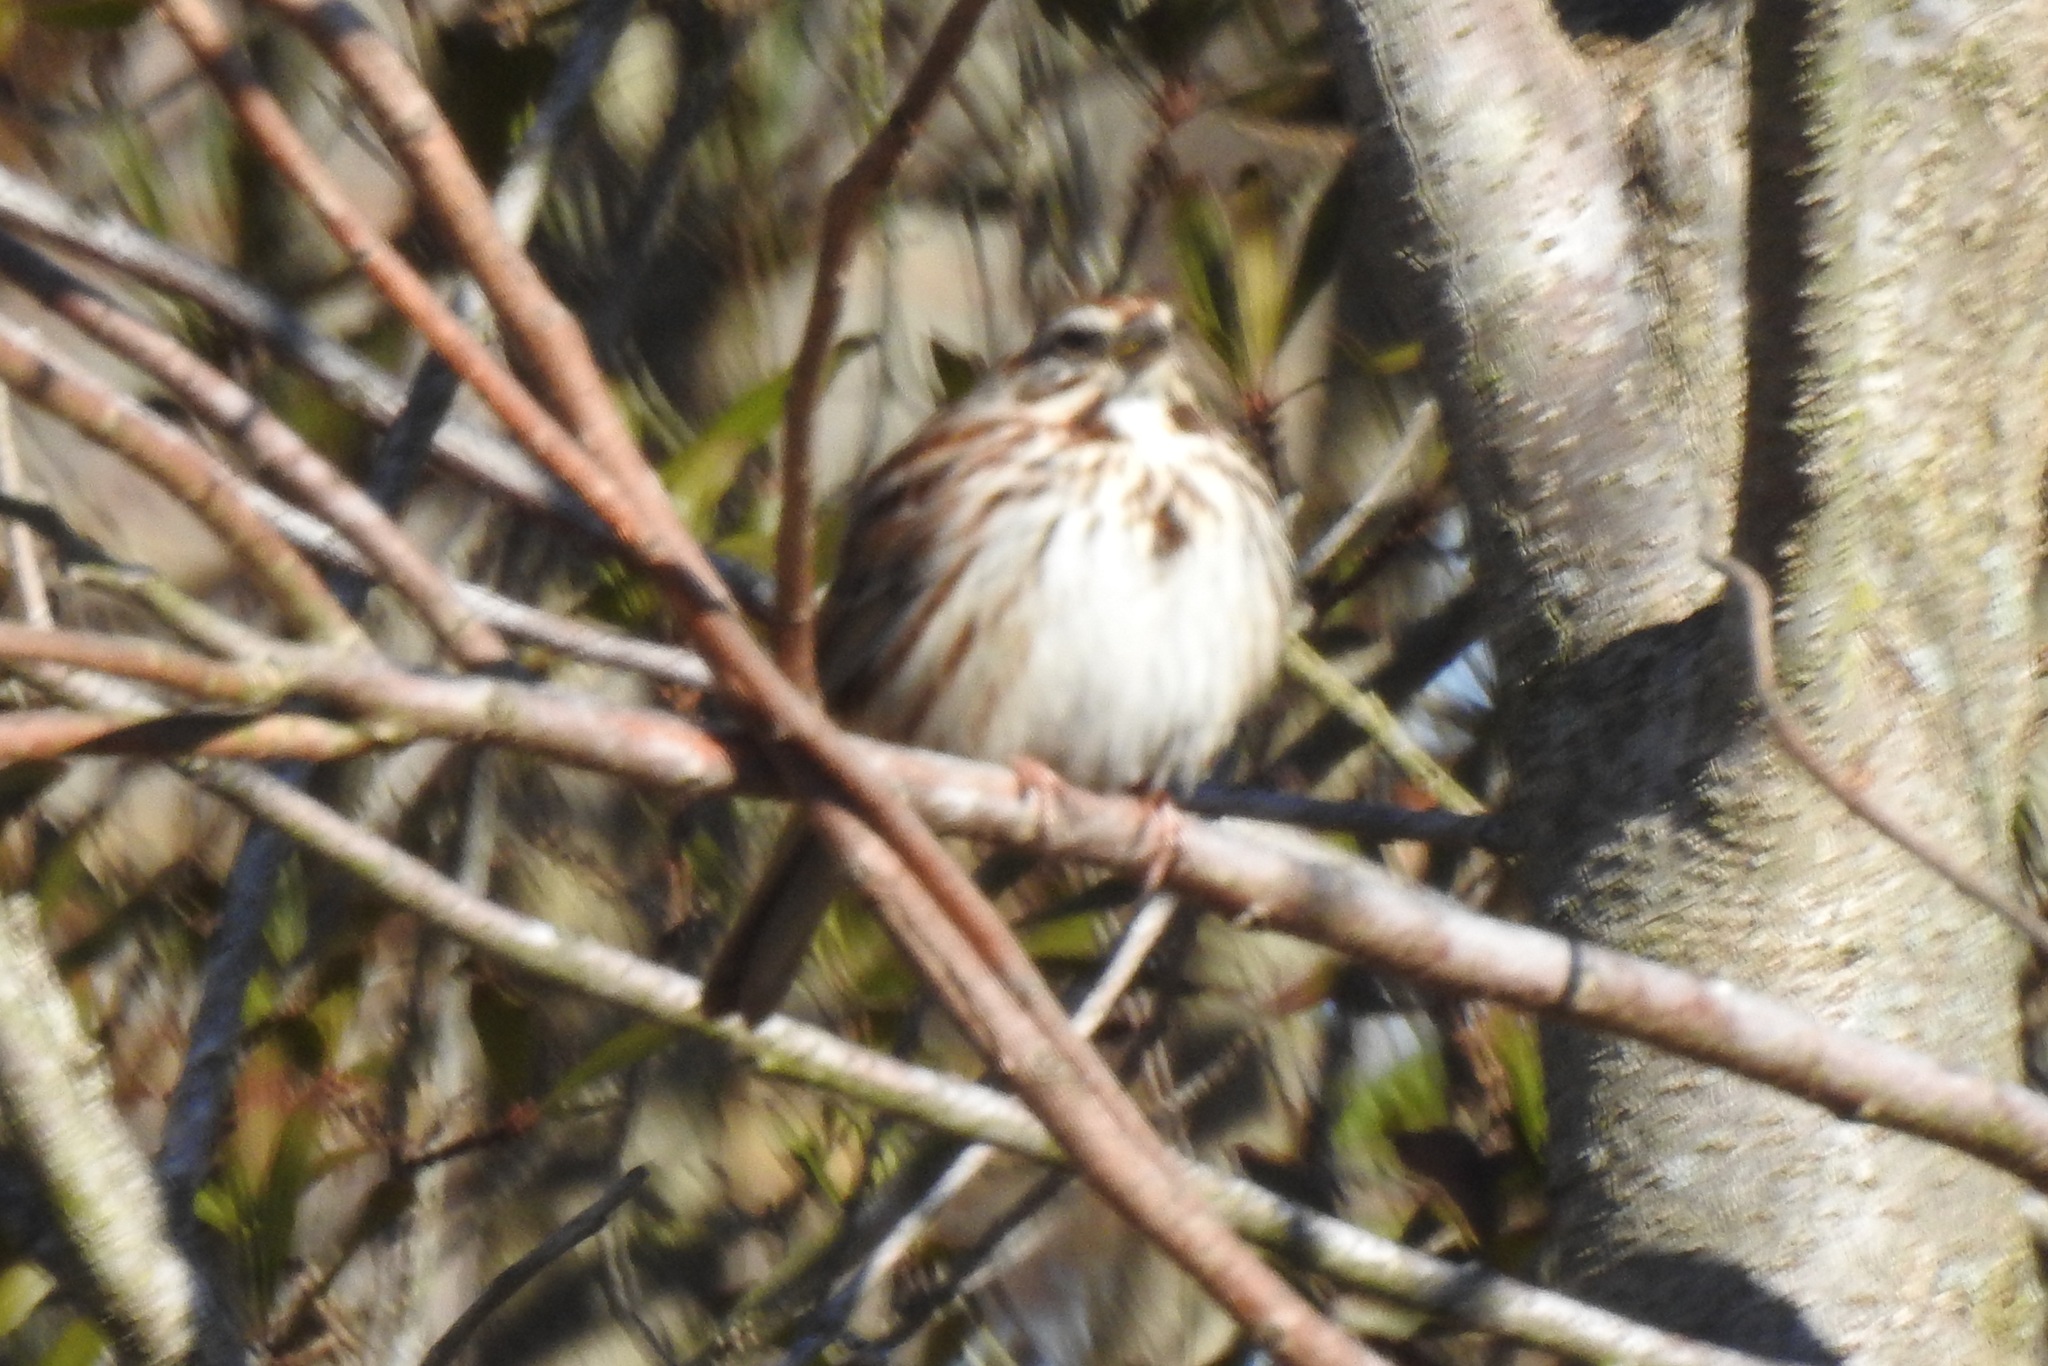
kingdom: Animalia
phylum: Chordata
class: Aves
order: Passeriformes
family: Passerellidae
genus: Melospiza
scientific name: Melospiza melodia
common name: Song sparrow
